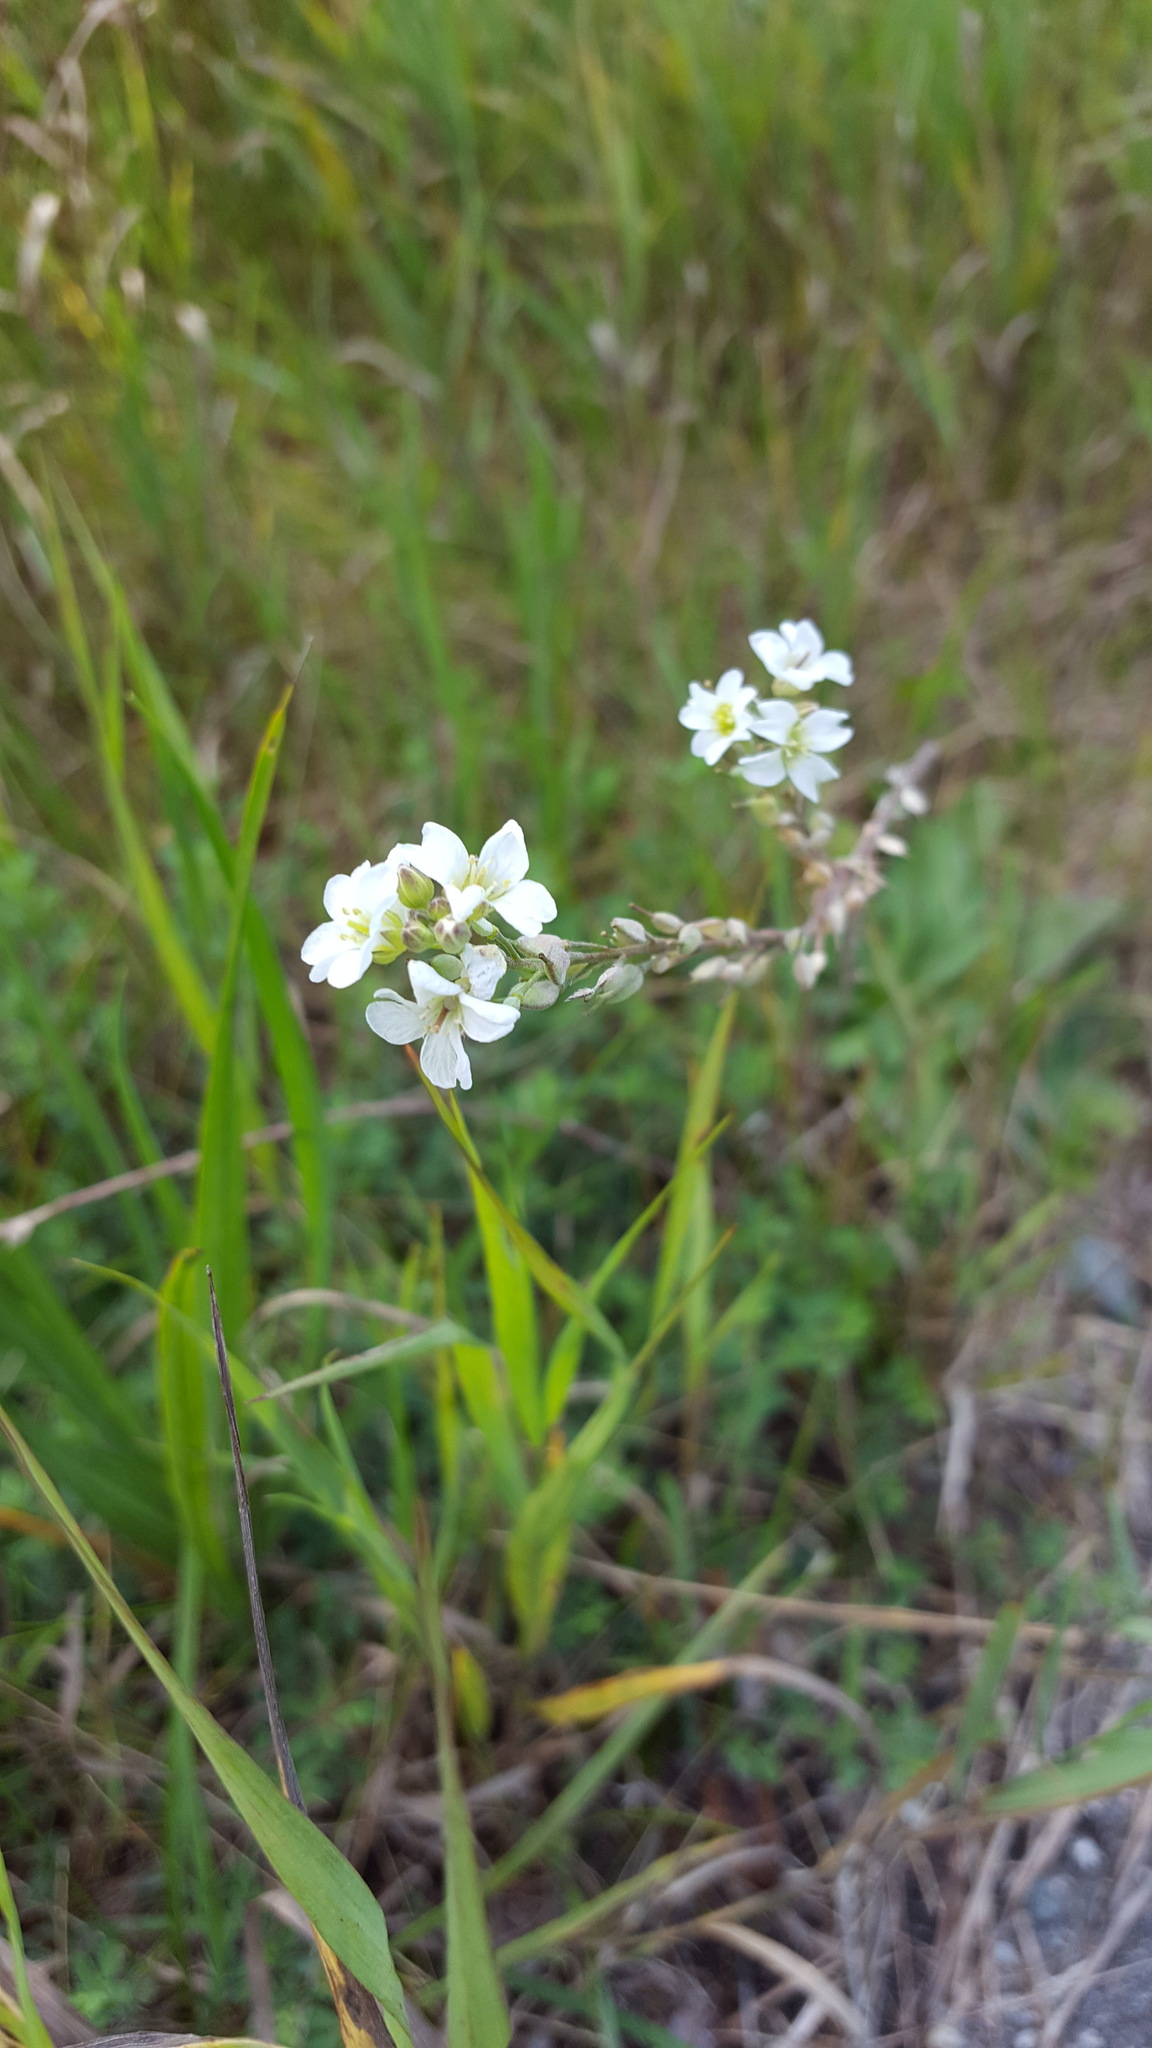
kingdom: Plantae
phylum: Tracheophyta
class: Magnoliopsida
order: Brassicales
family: Brassicaceae
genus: Berteroa
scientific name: Berteroa incana
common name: Hoary alison
